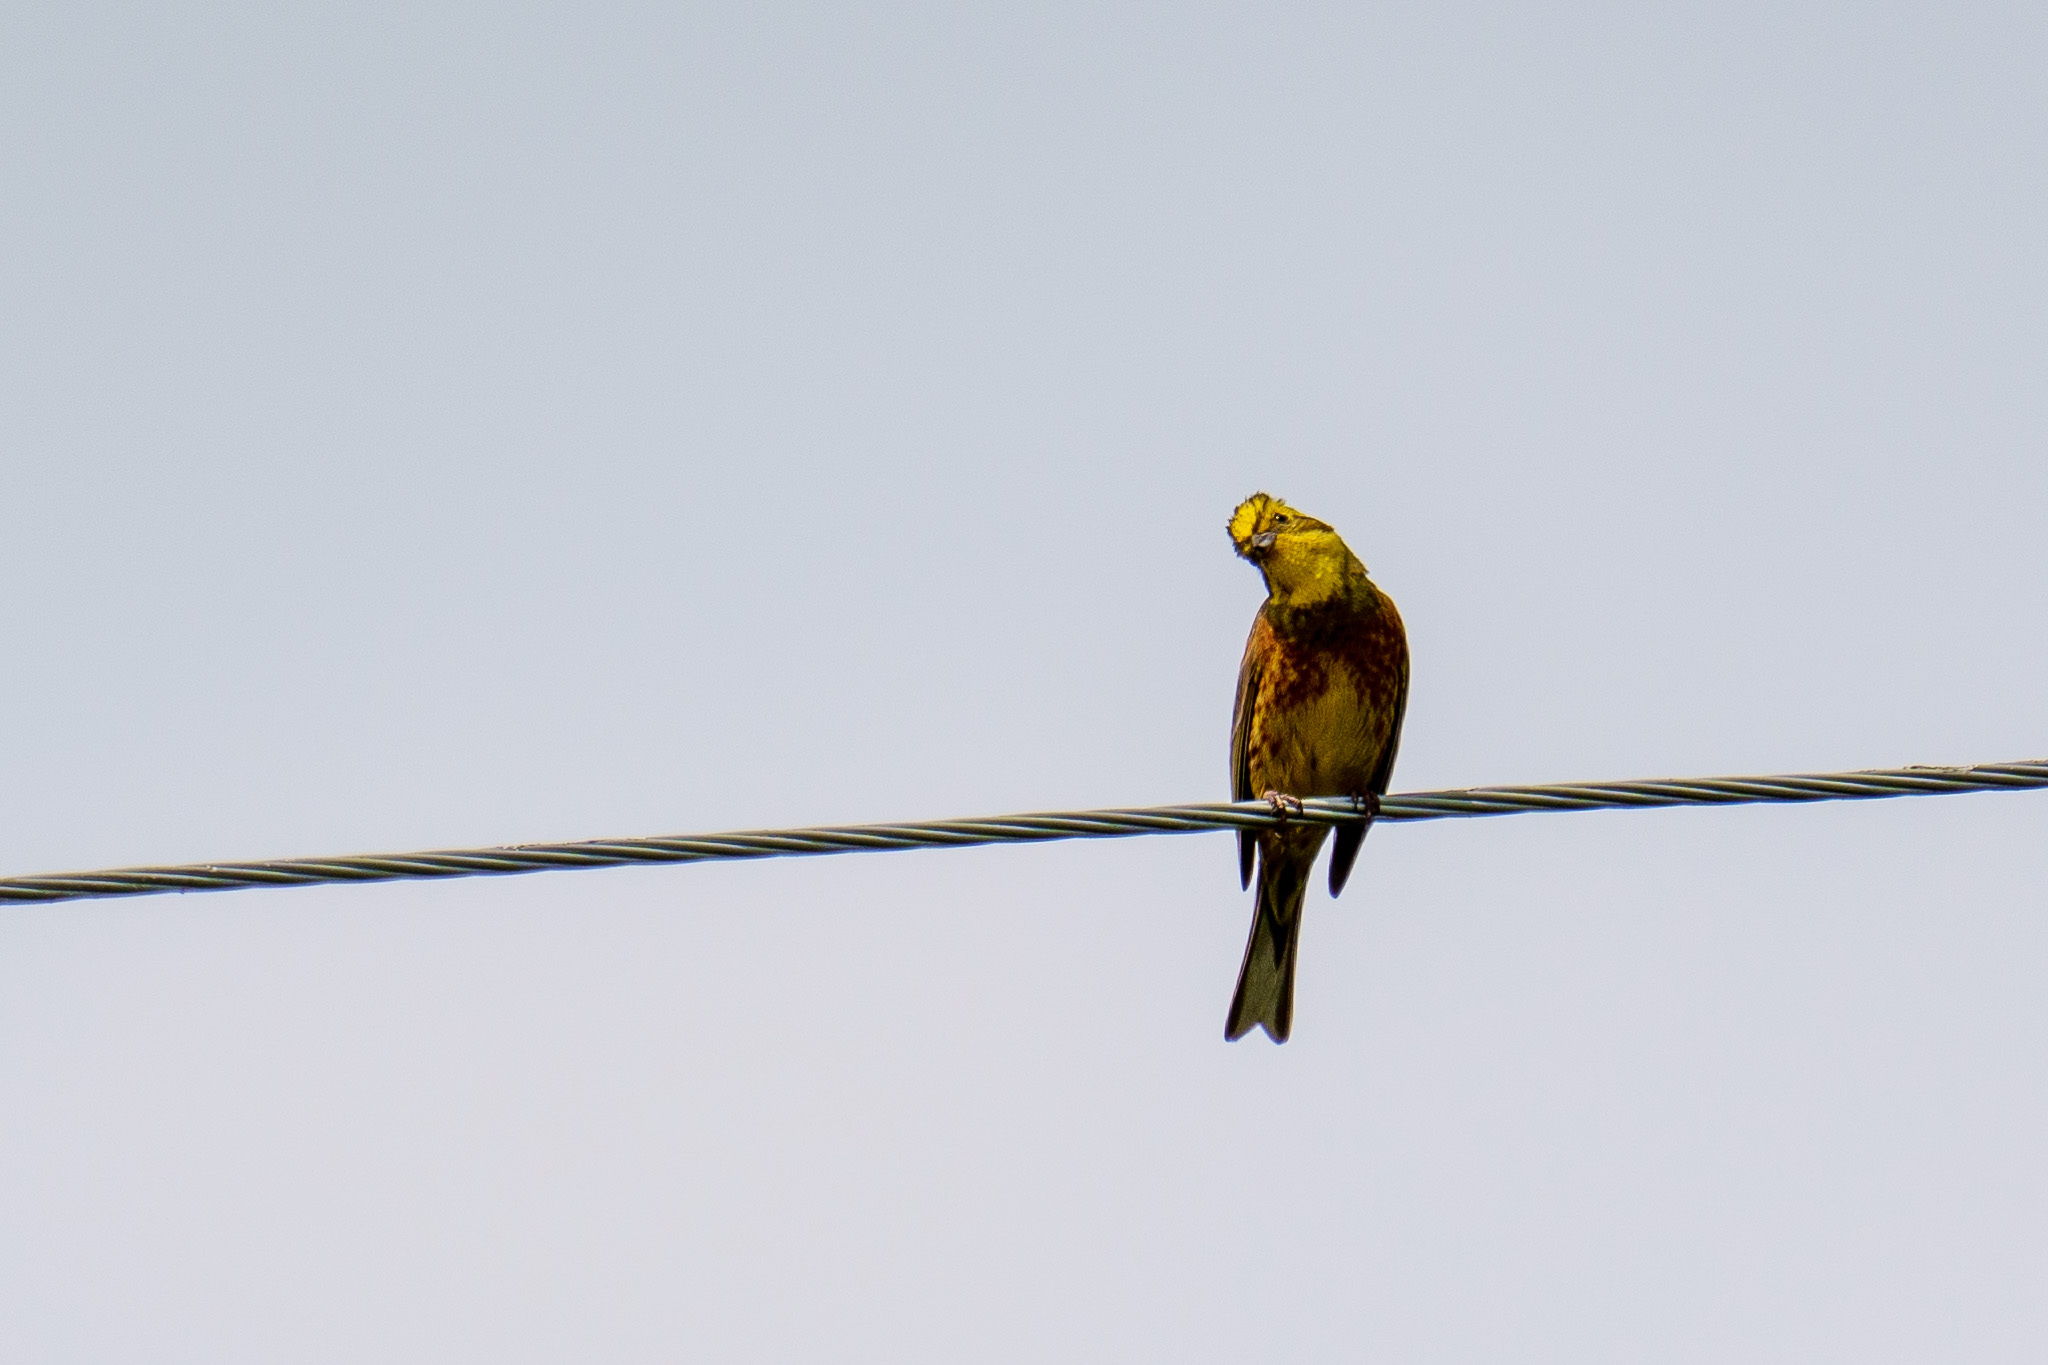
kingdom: Animalia
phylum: Chordata
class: Aves
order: Passeriformes
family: Emberizidae
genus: Emberiza
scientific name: Emberiza citrinella
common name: Yellowhammer
